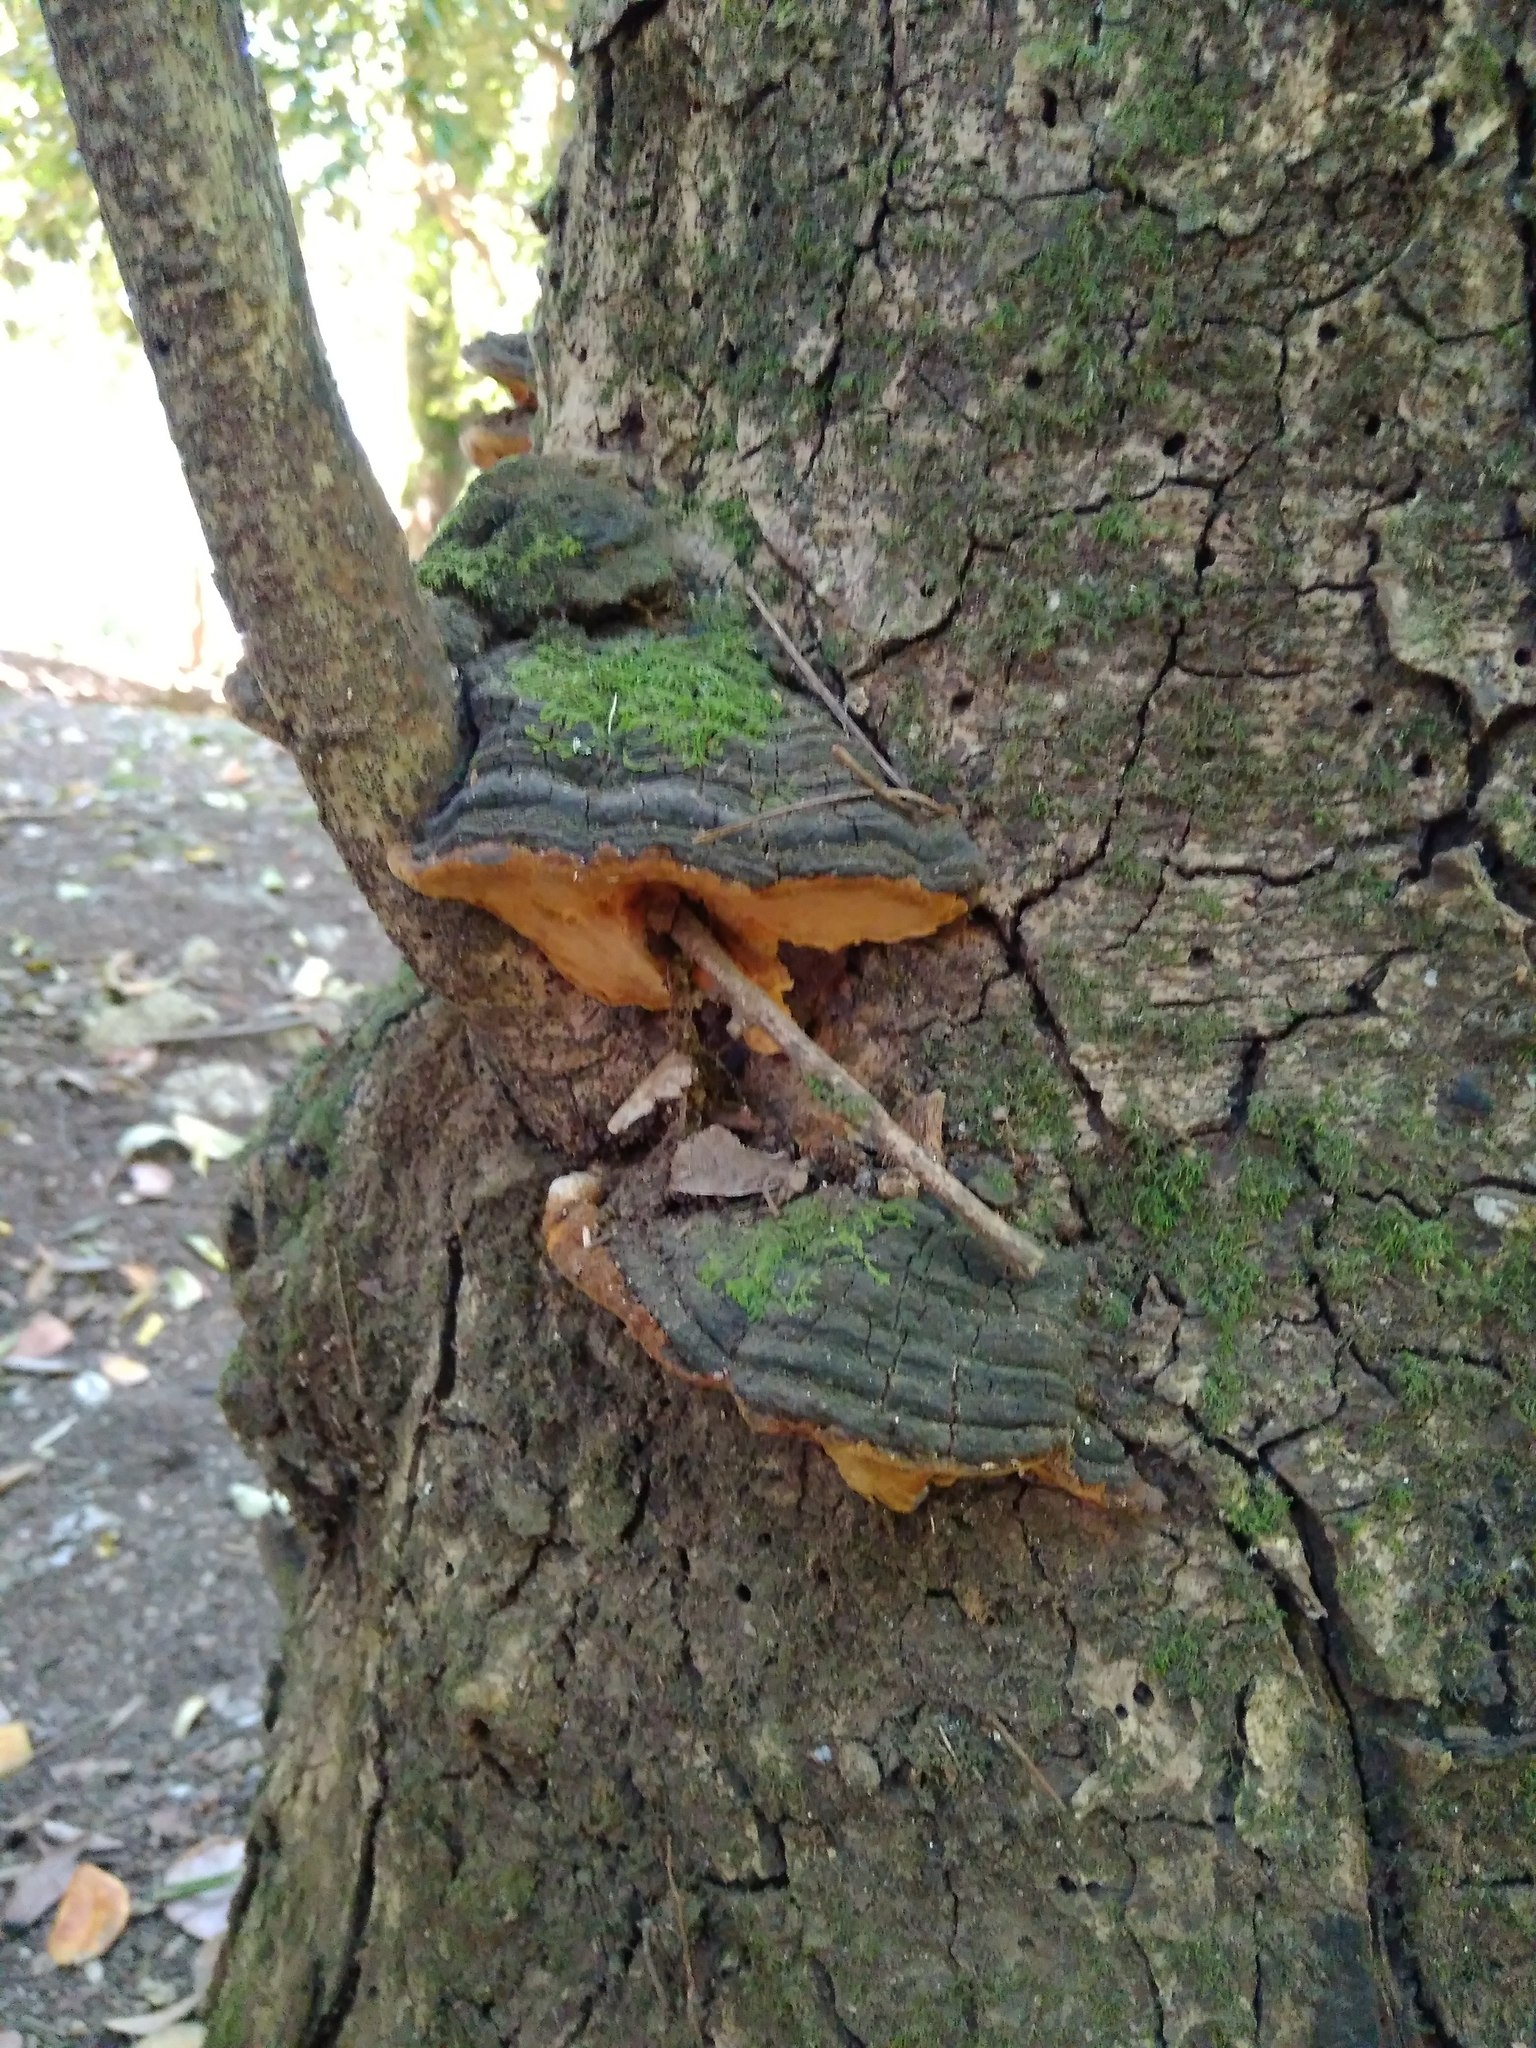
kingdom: Fungi
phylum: Basidiomycota
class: Agaricomycetes
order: Hymenochaetales
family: Hymenochaetaceae
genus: Phylloporia
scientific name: Phylloporia boldo
